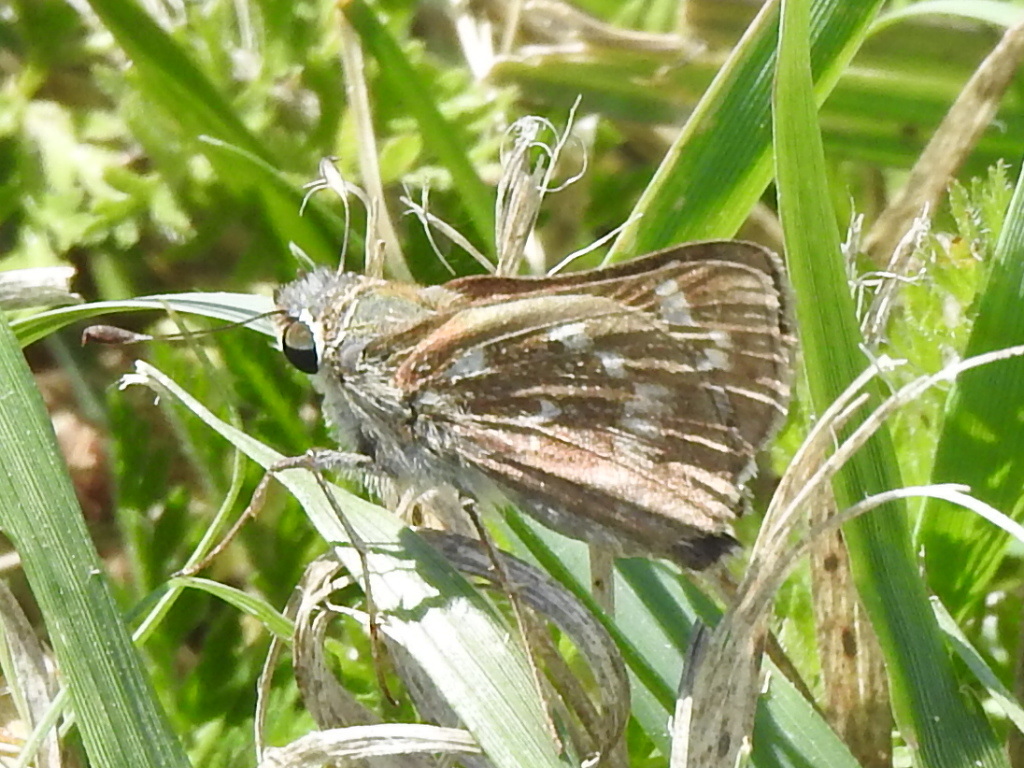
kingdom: Animalia
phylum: Arthropoda
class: Insecta
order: Lepidoptera
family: Hesperiidae
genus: Atalopedes
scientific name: Atalopedes
